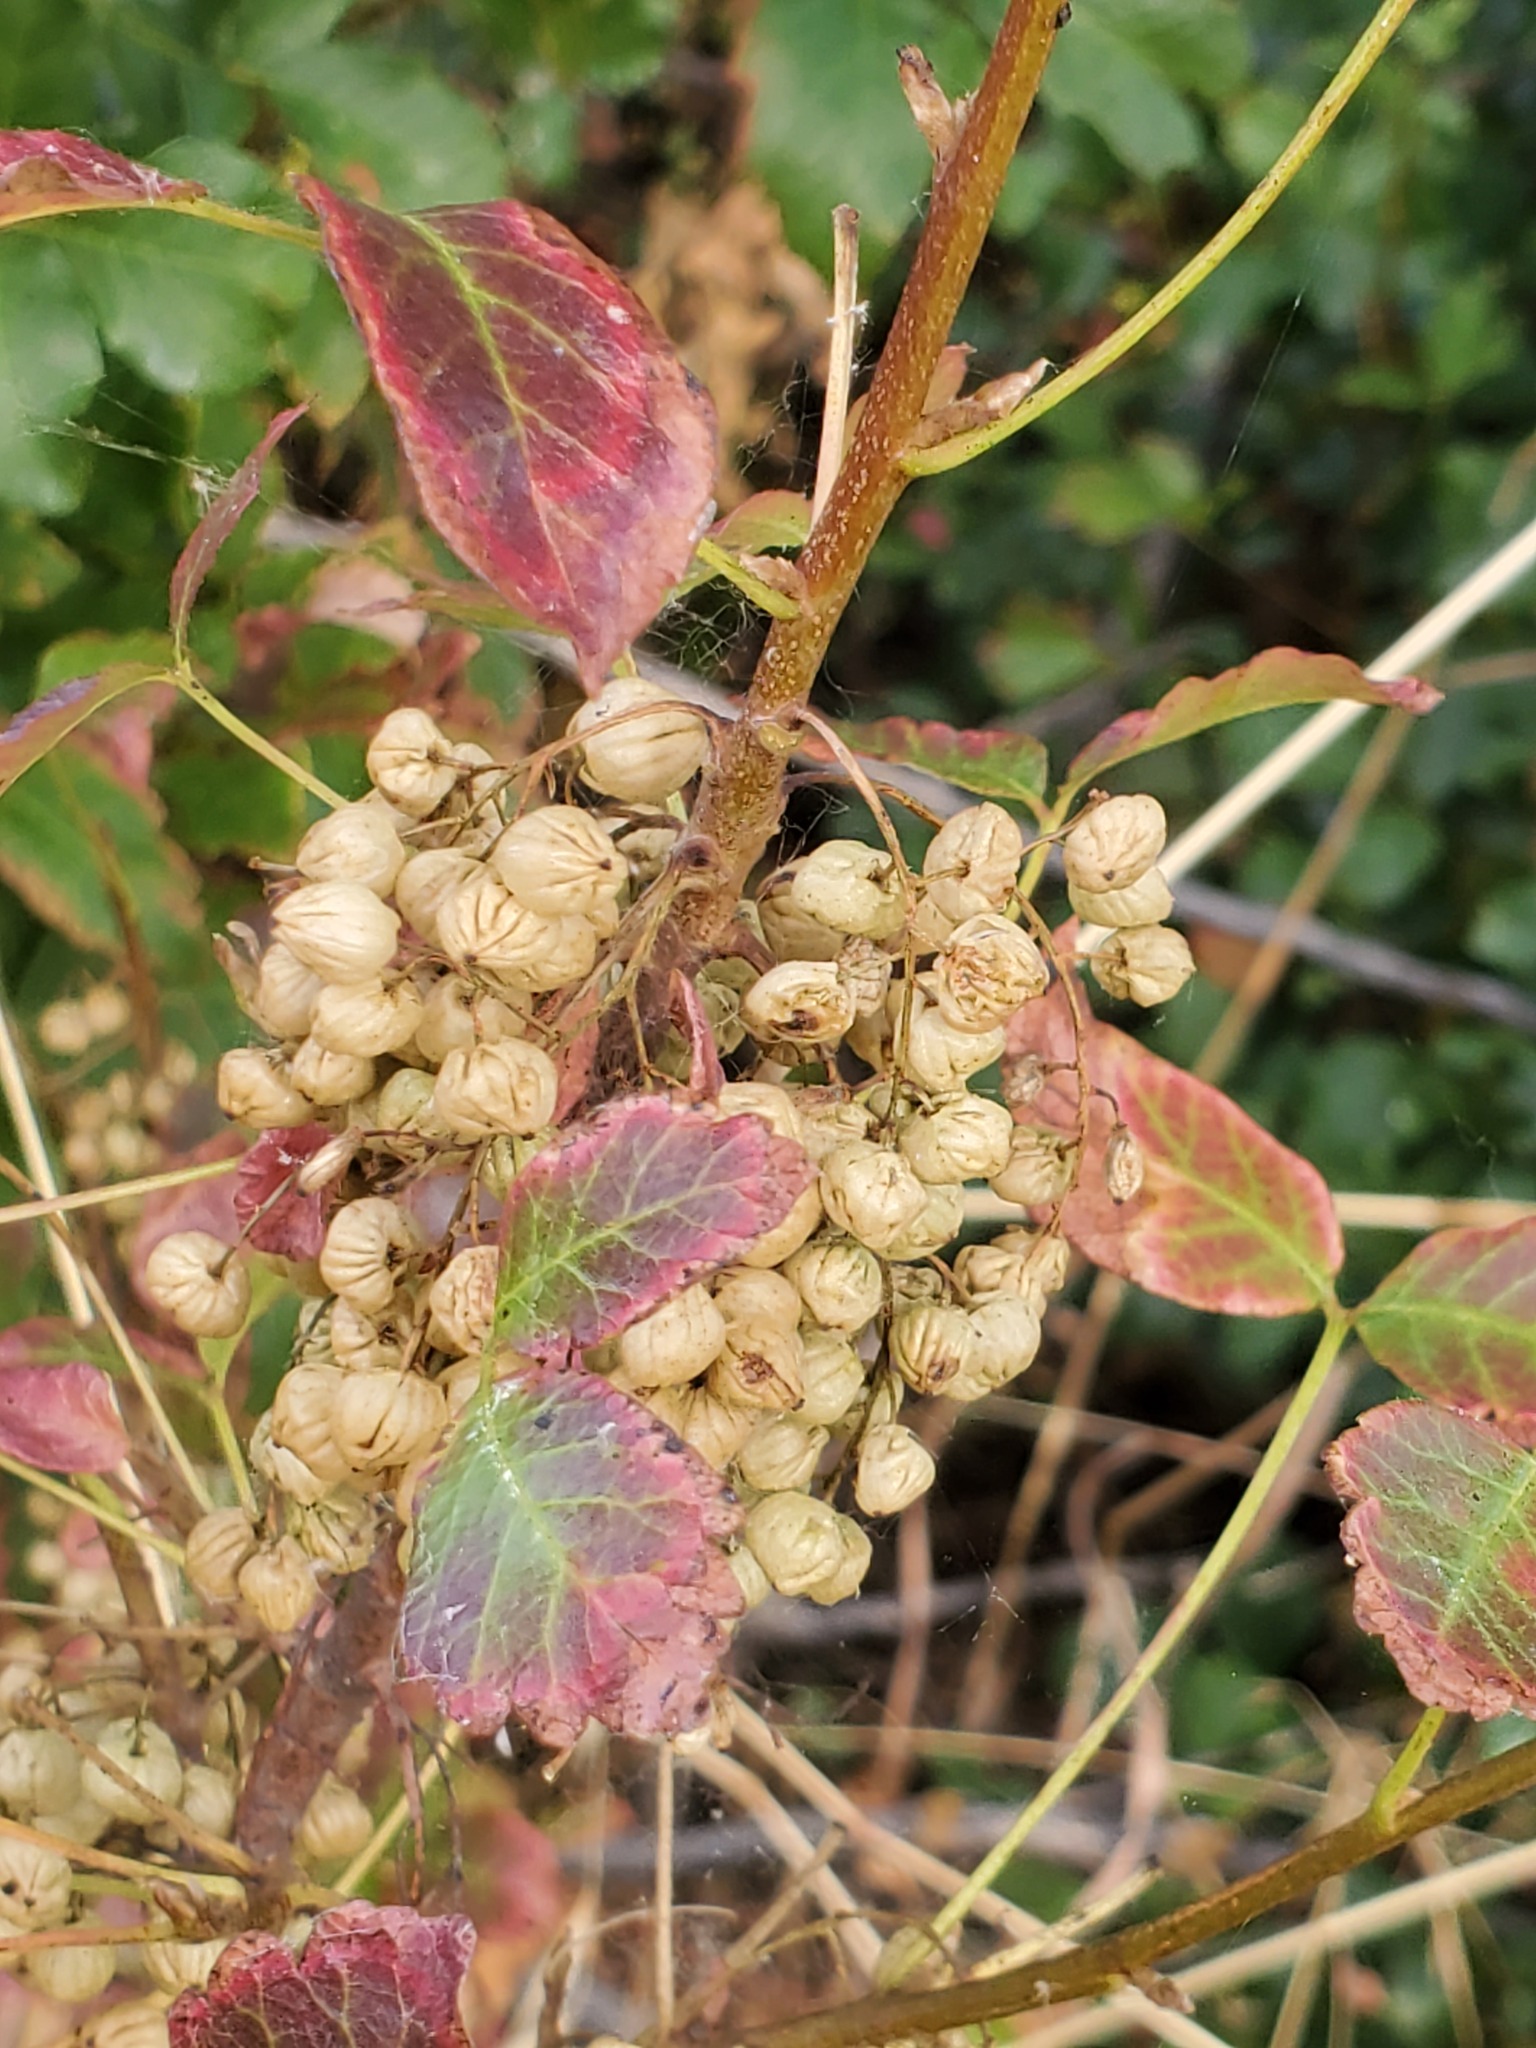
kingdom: Plantae
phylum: Tracheophyta
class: Magnoliopsida
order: Sapindales
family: Anacardiaceae
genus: Toxicodendron
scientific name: Toxicodendron diversilobum
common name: Pacific poison-oak
